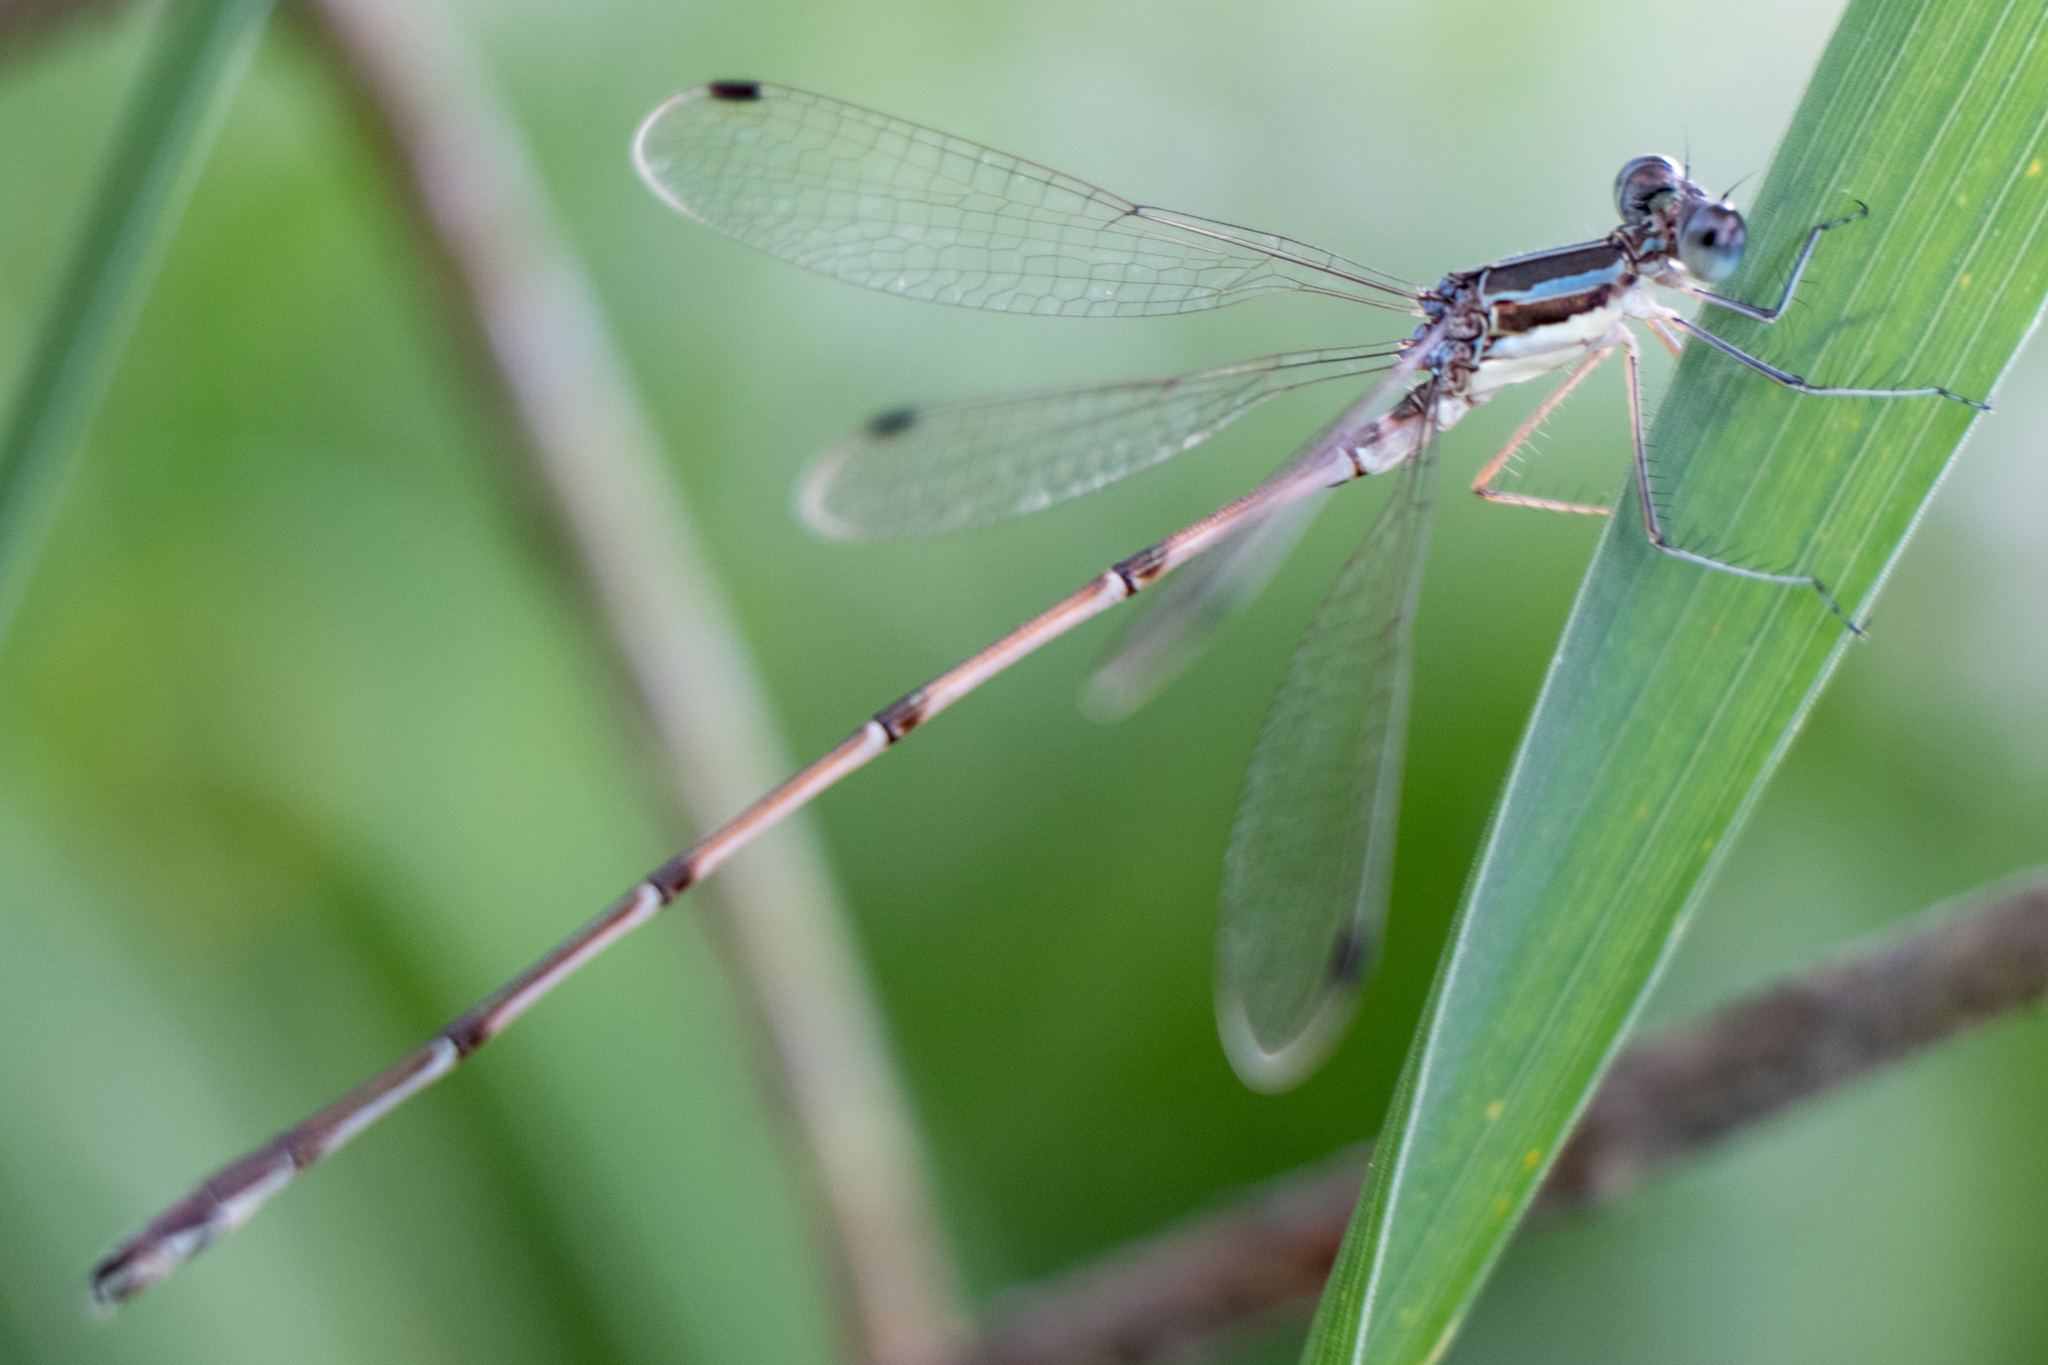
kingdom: Animalia
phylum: Arthropoda
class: Insecta
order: Odonata
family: Lestidae
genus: Lestes
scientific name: Lestes rectangularis
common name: Slender spreadwing
